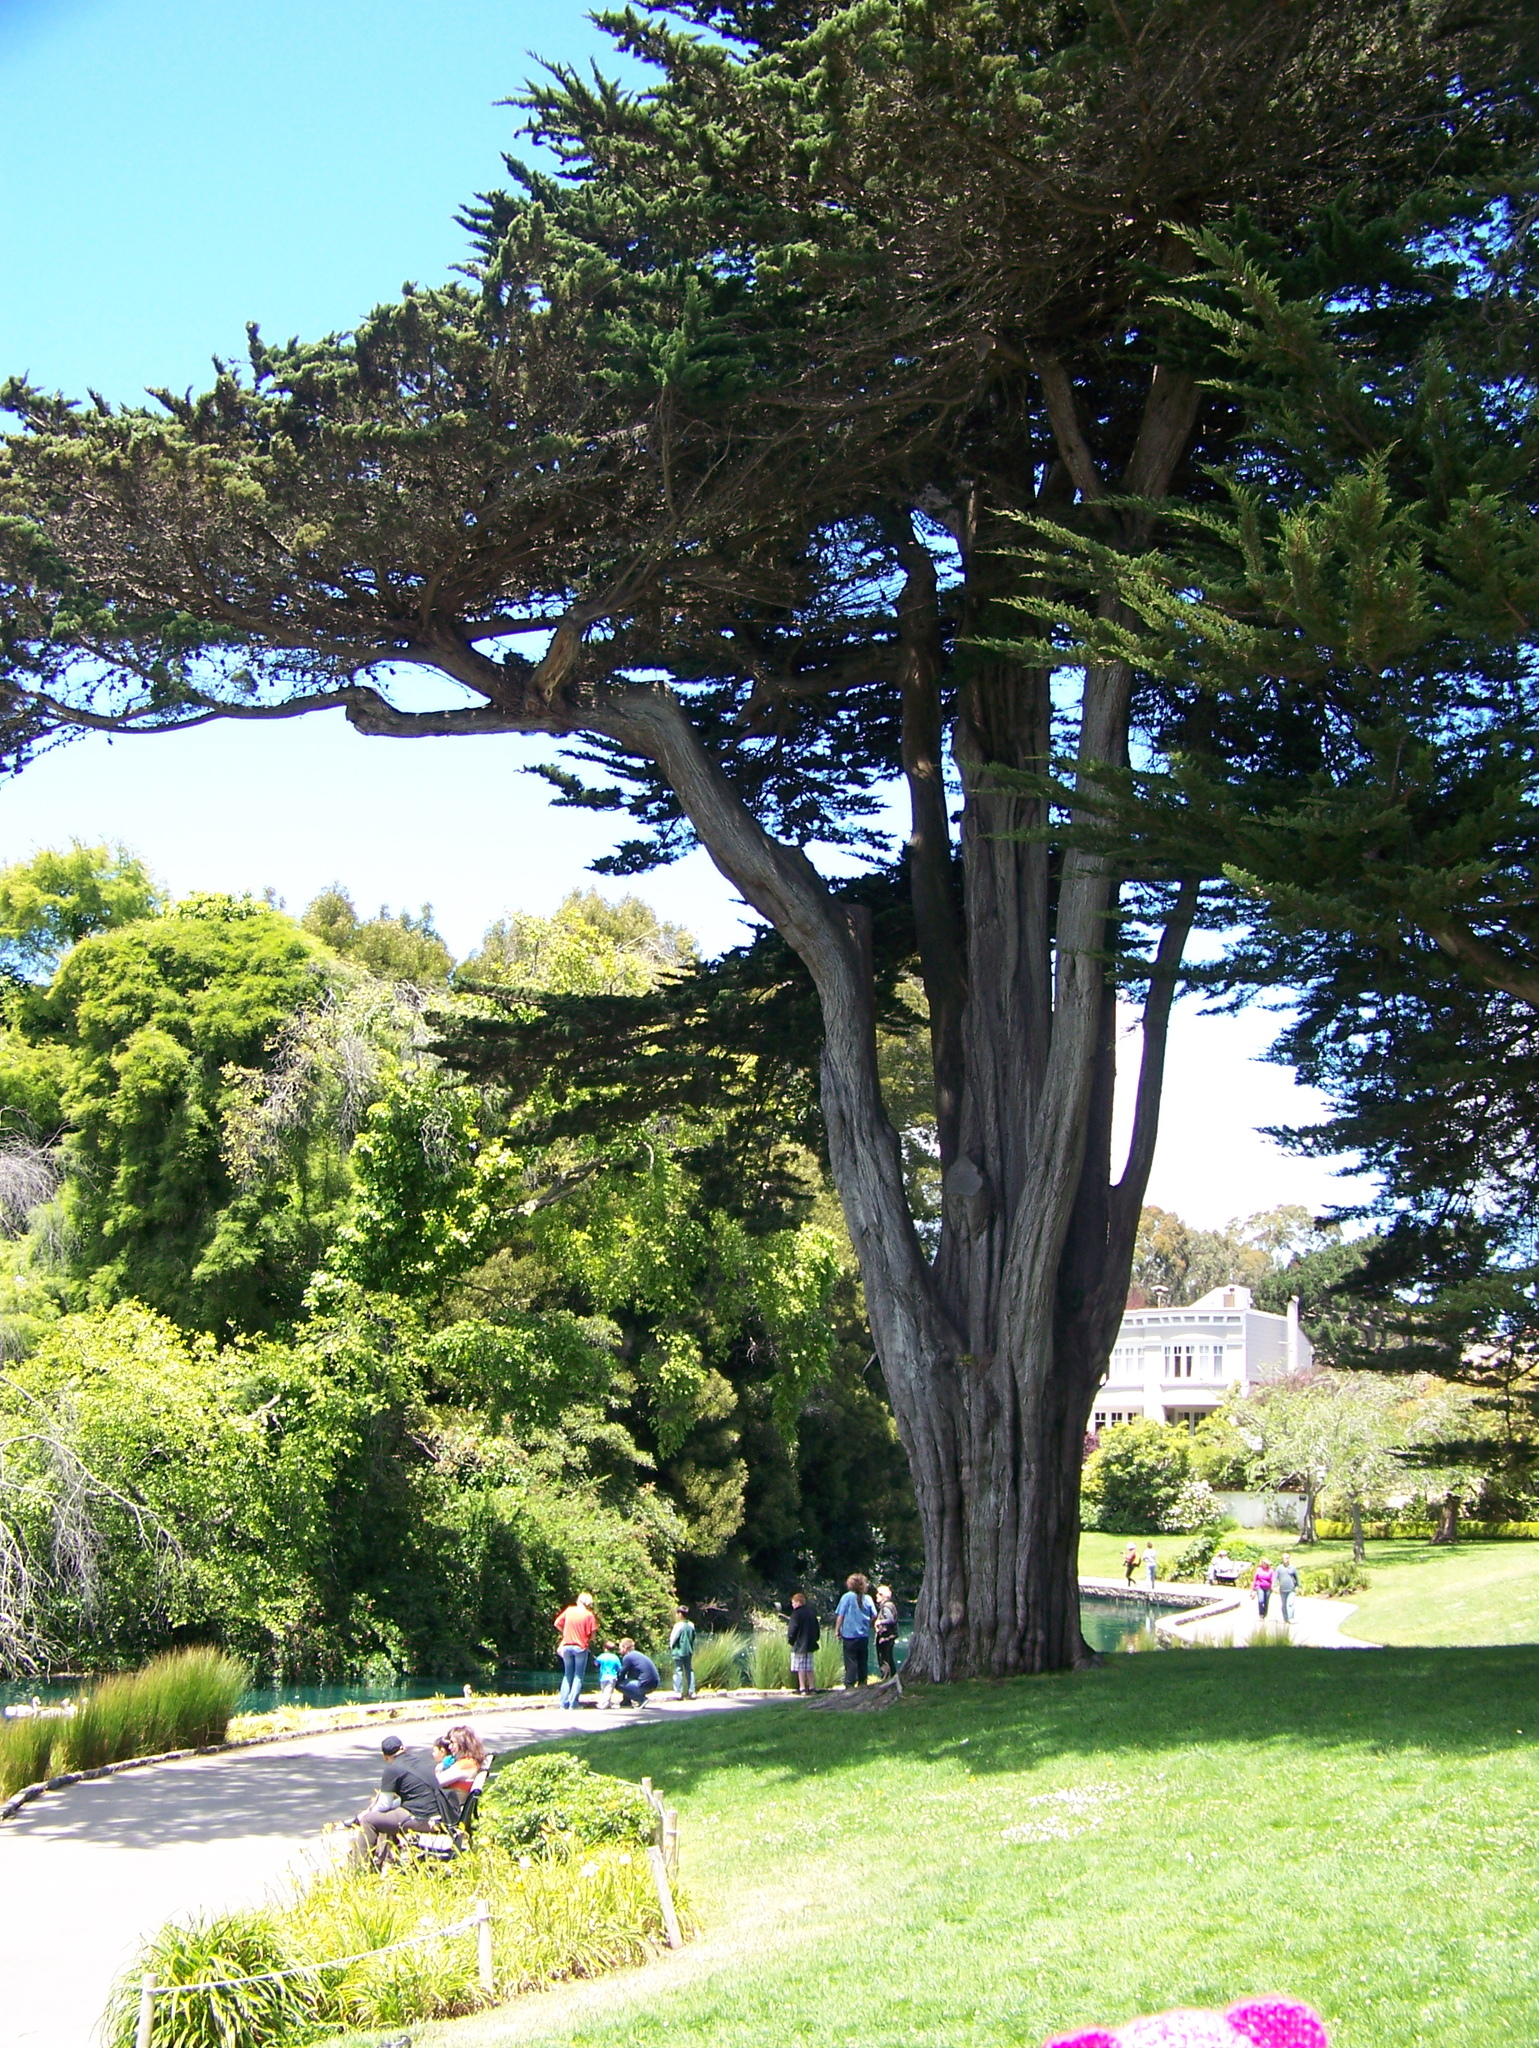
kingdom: Plantae
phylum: Tracheophyta
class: Pinopsida
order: Pinales
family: Cupressaceae
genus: Cupressus
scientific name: Cupressus macrocarpa
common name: Monterey cypress
